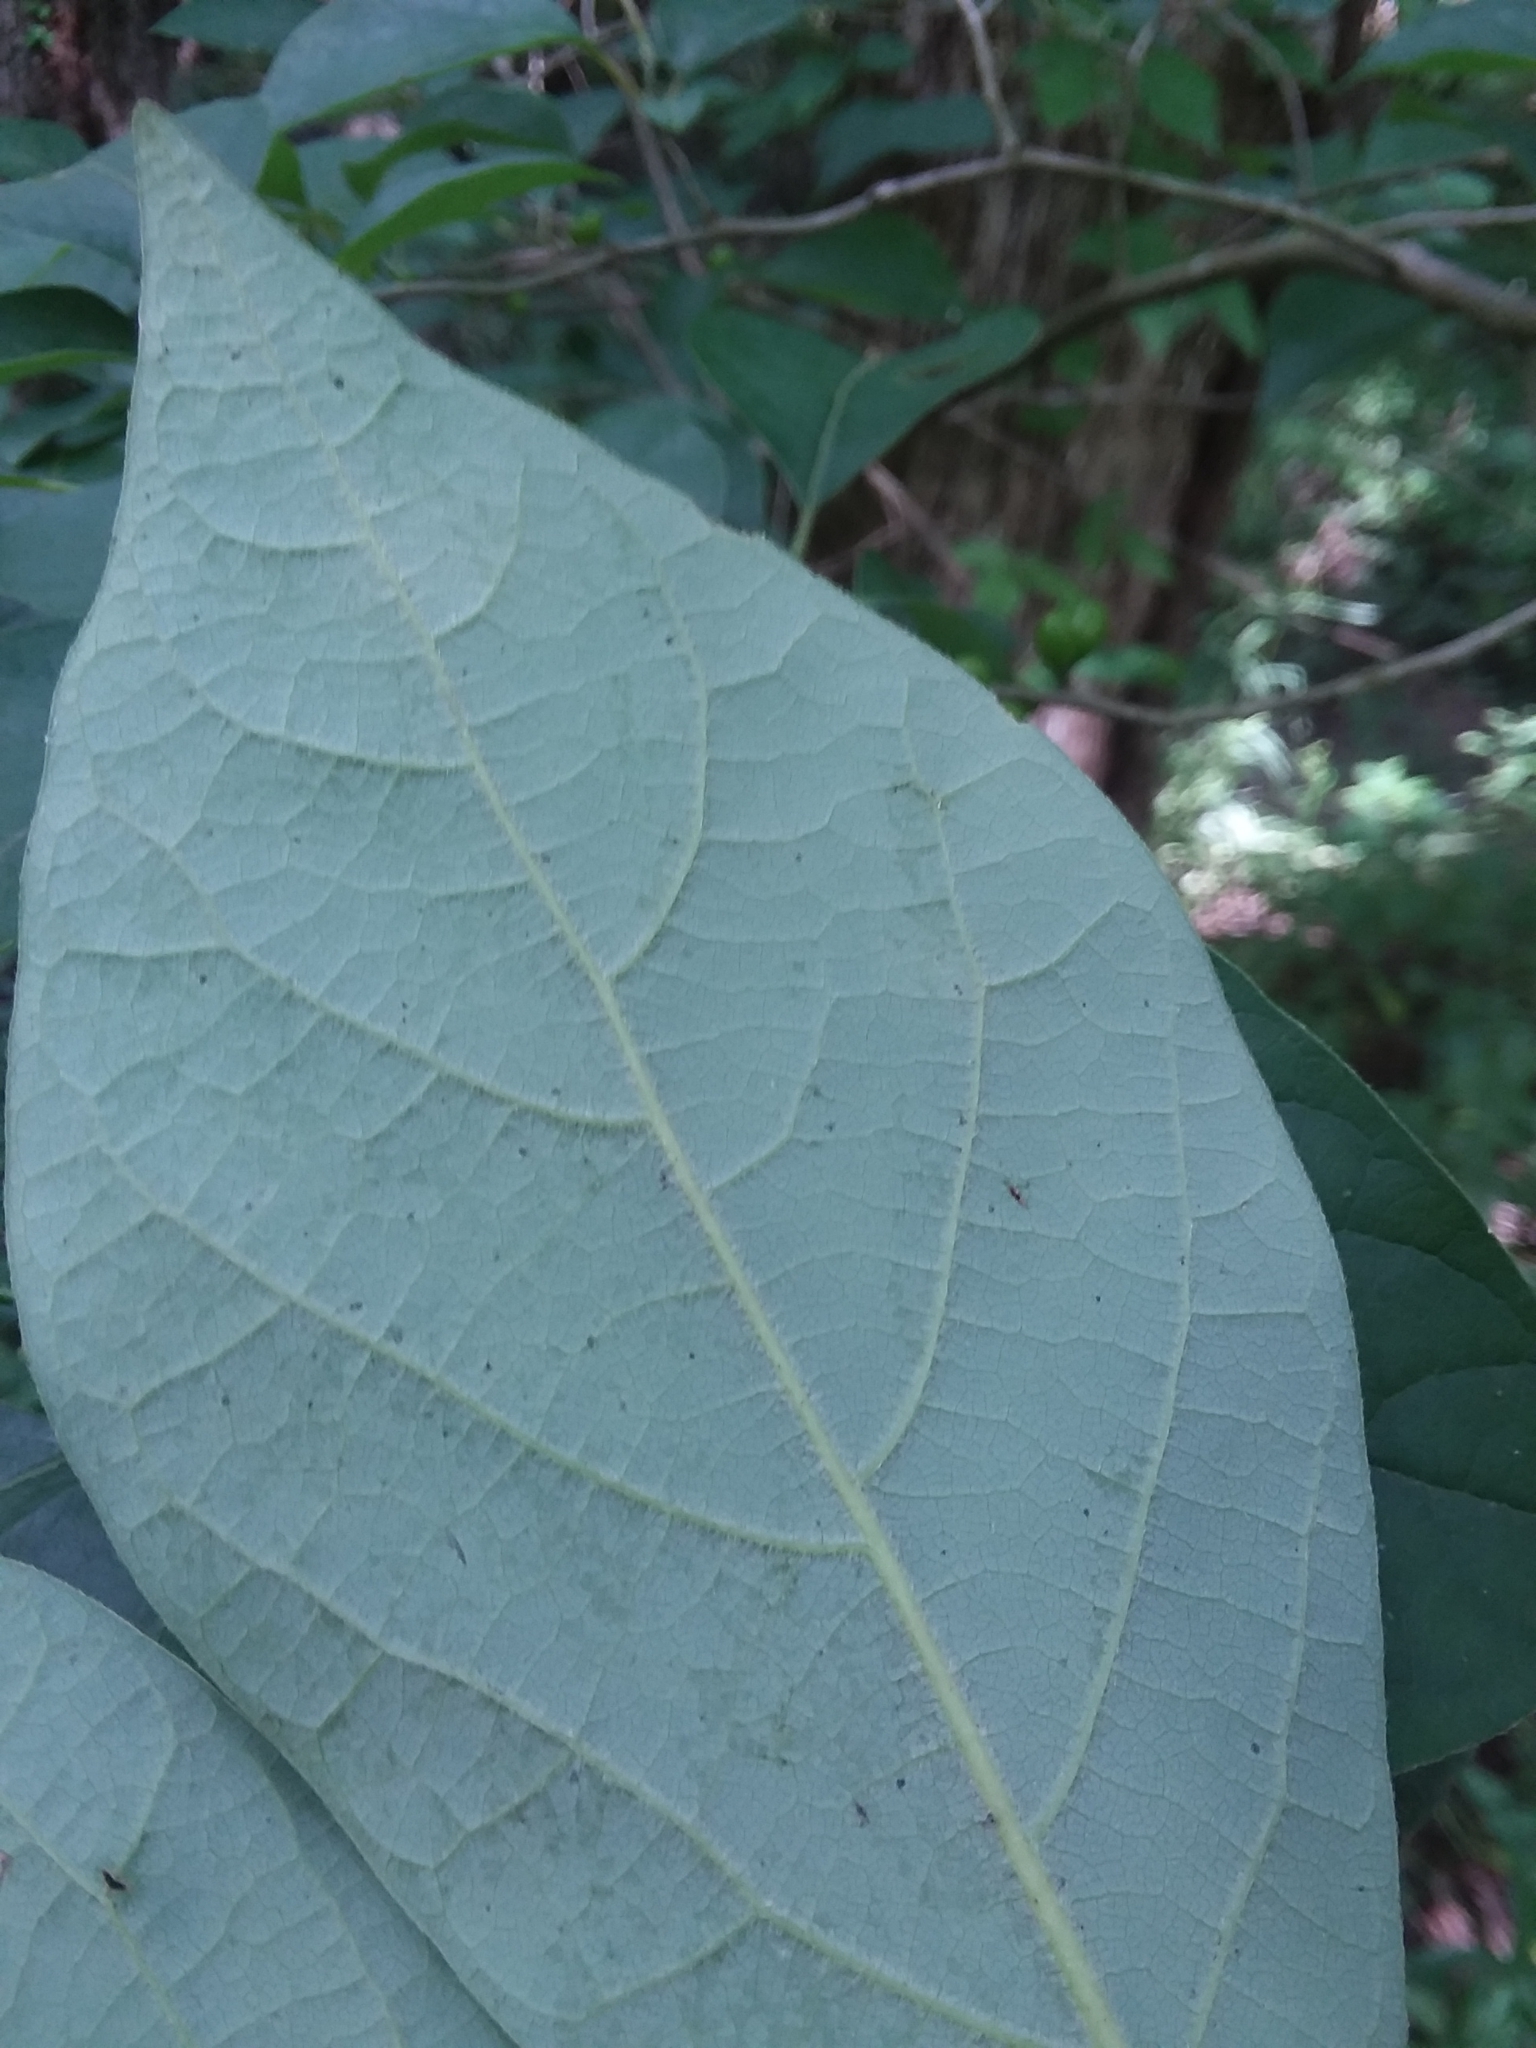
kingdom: Plantae
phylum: Tracheophyta
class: Magnoliopsida
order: Laurales
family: Lauraceae
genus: Lindera
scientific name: Lindera benzoin
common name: Spicebush
